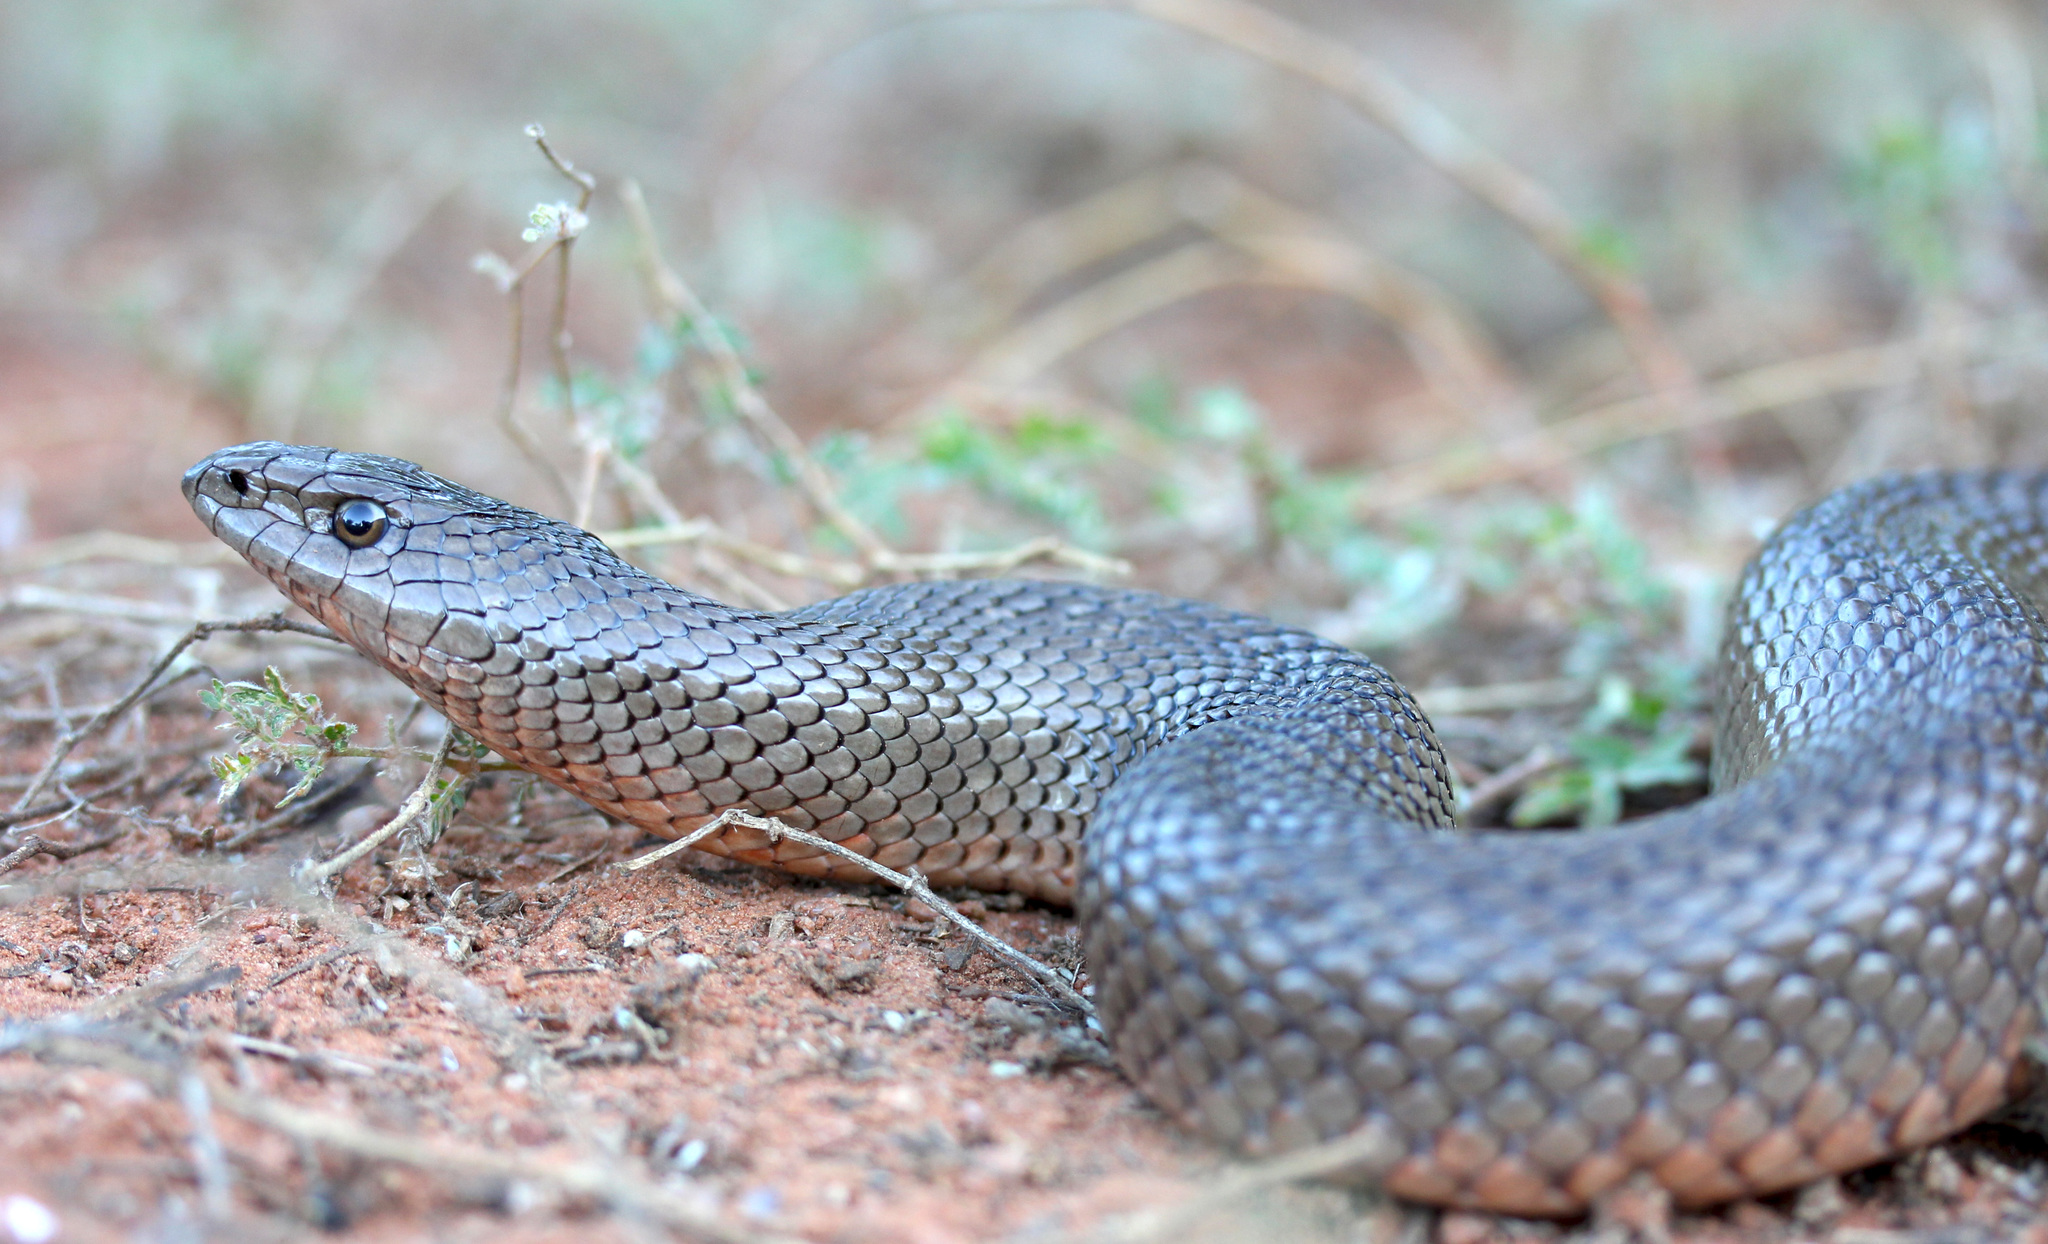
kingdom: Animalia
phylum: Chordata
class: Squamata
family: Pseudaspididae
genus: Pseudaspis
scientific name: Pseudaspis cana
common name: Mole snake
